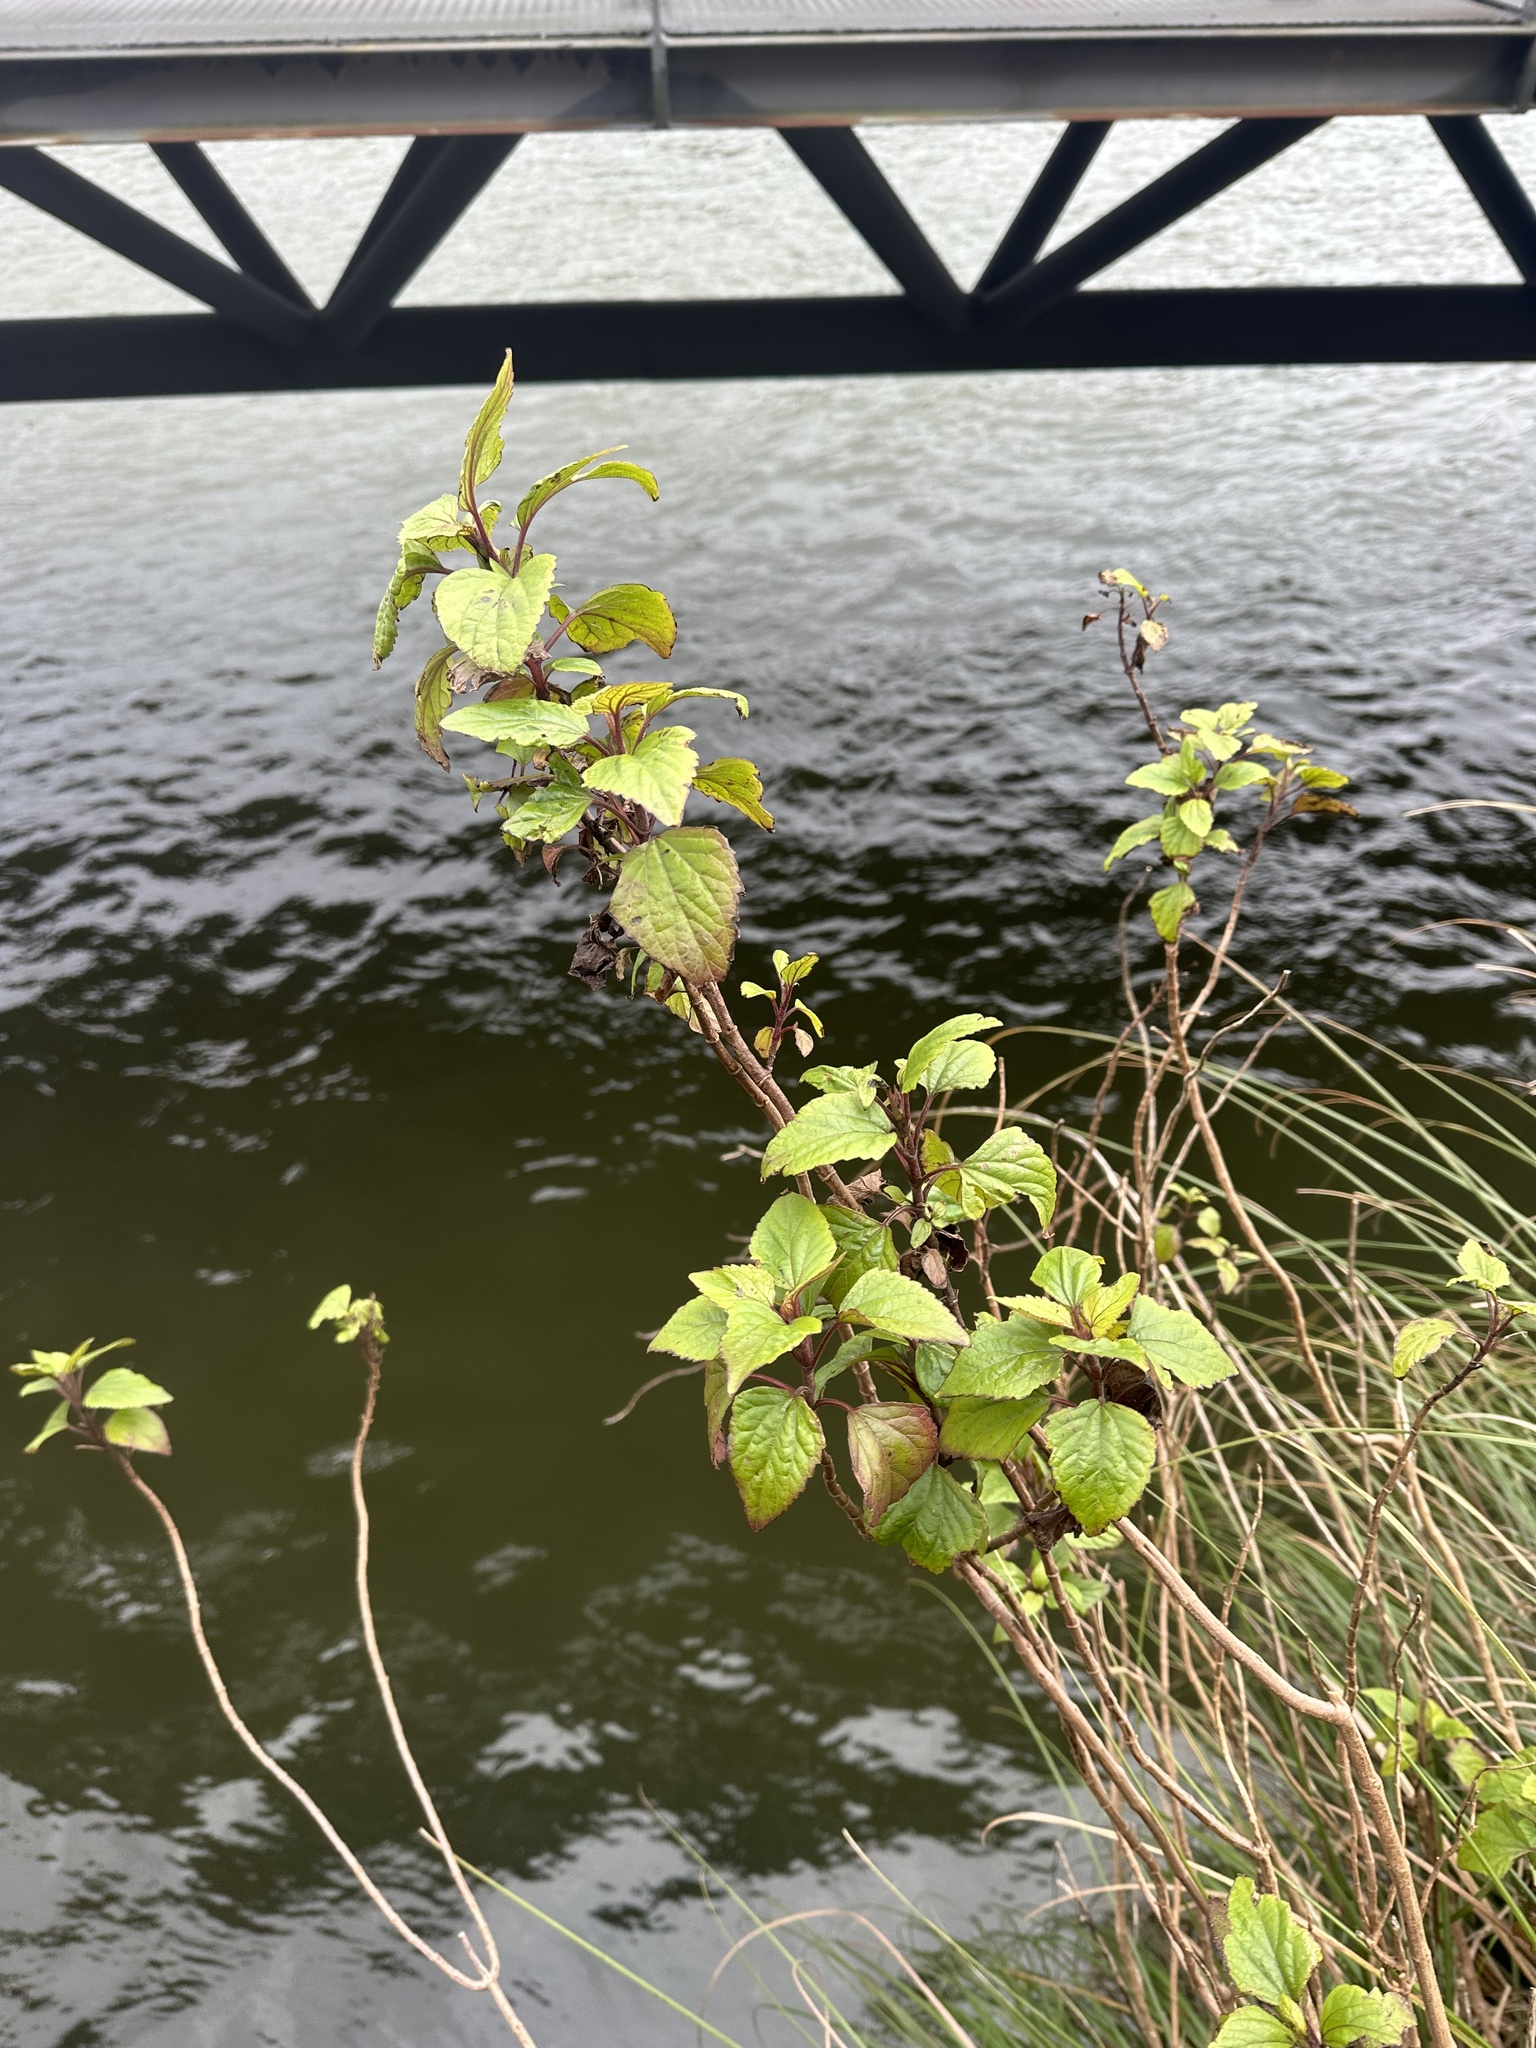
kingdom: Plantae
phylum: Tracheophyta
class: Magnoliopsida
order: Asterales
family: Asteraceae
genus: Ageratina
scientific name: Ageratina adenophora
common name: Sticky snakeroot
